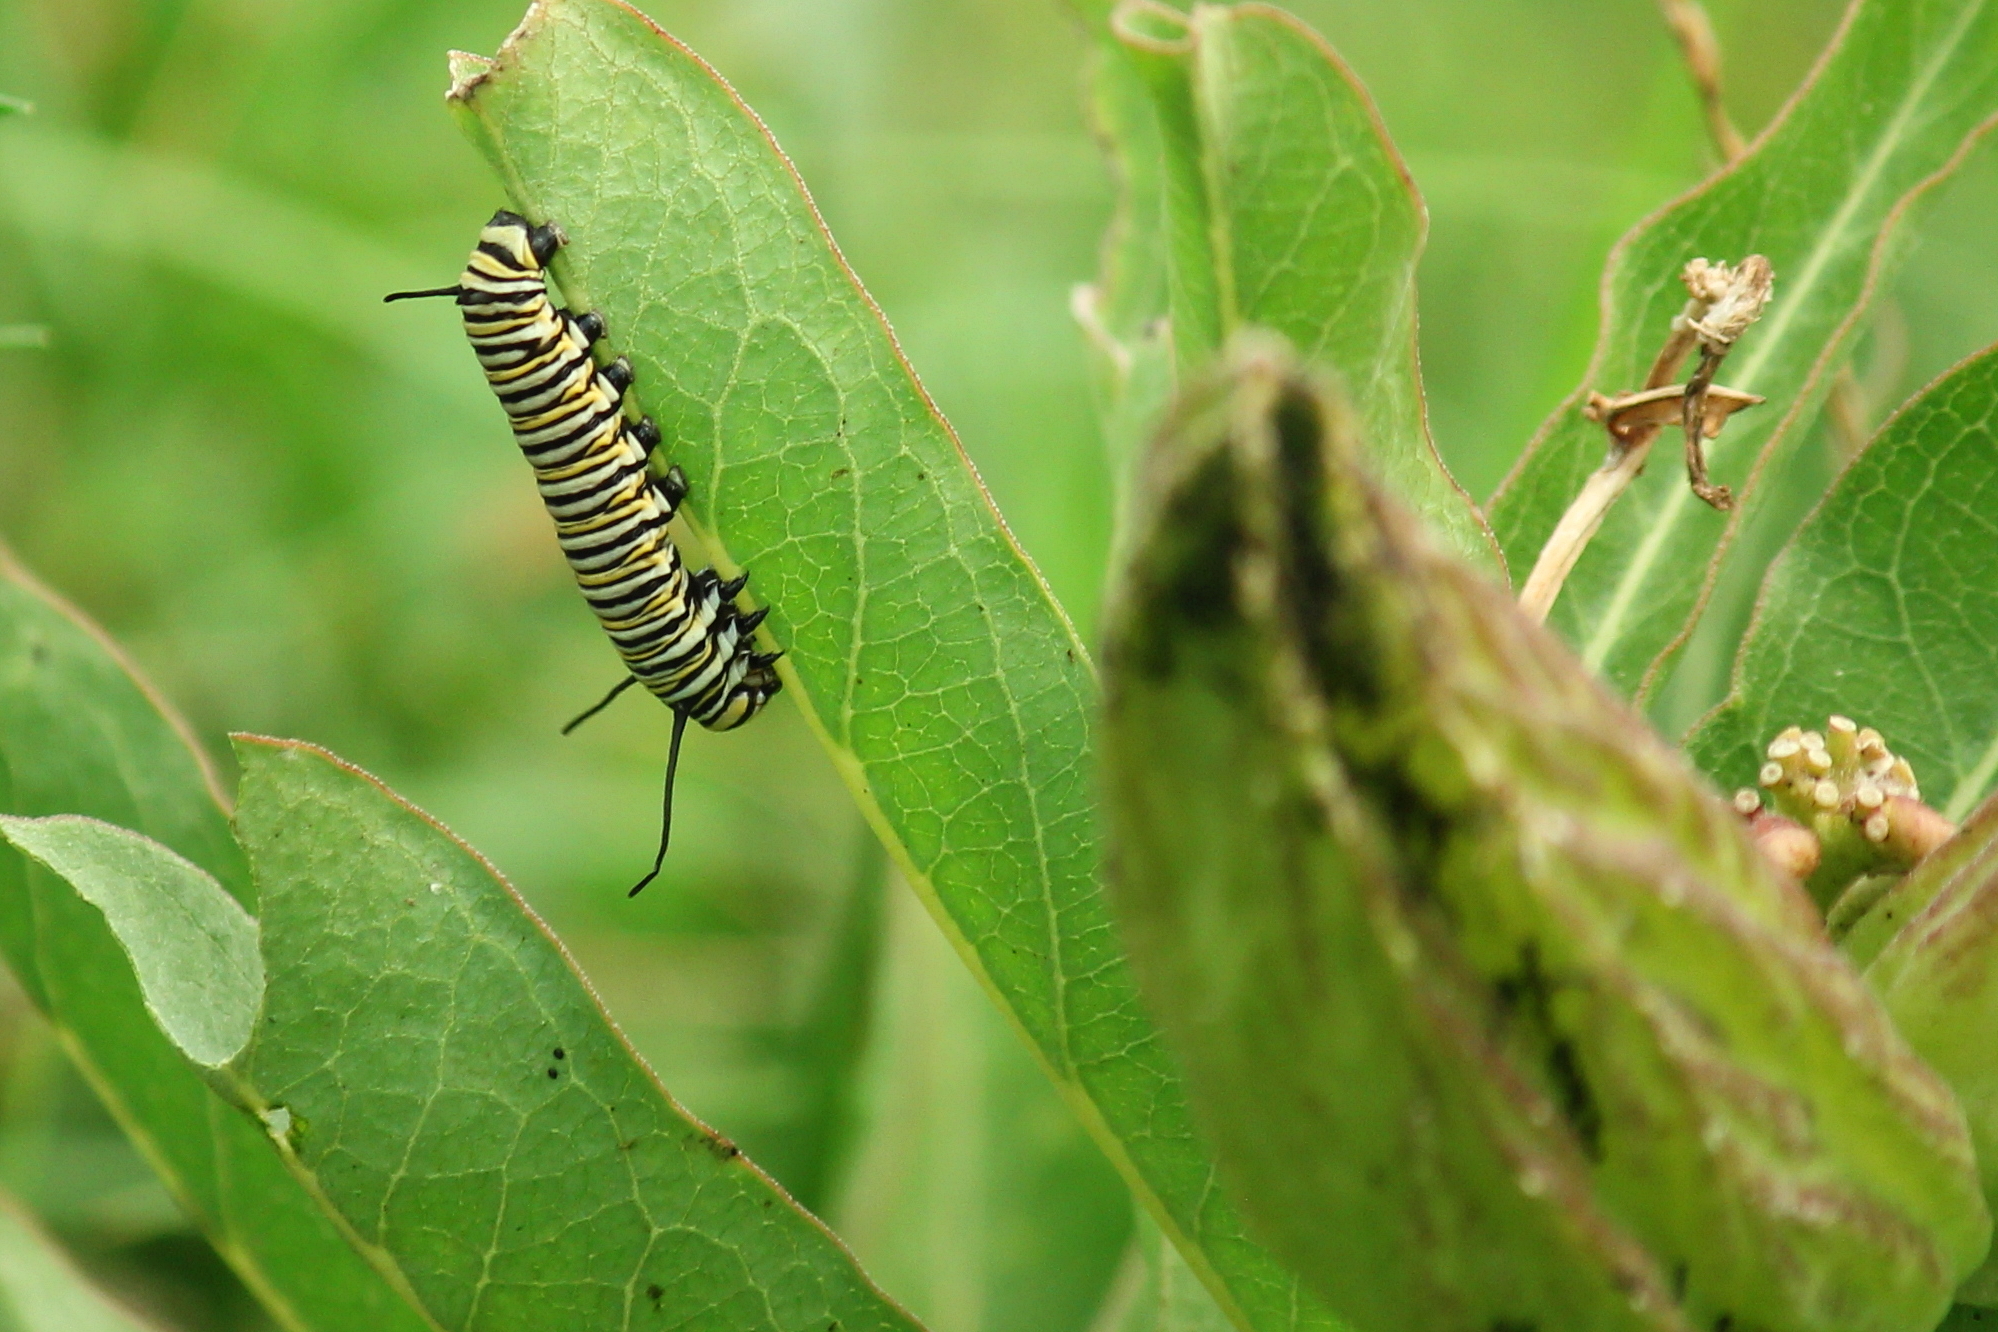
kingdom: Animalia
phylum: Arthropoda
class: Insecta
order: Lepidoptera
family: Nymphalidae
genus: Danaus
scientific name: Danaus plexippus
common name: Monarch
